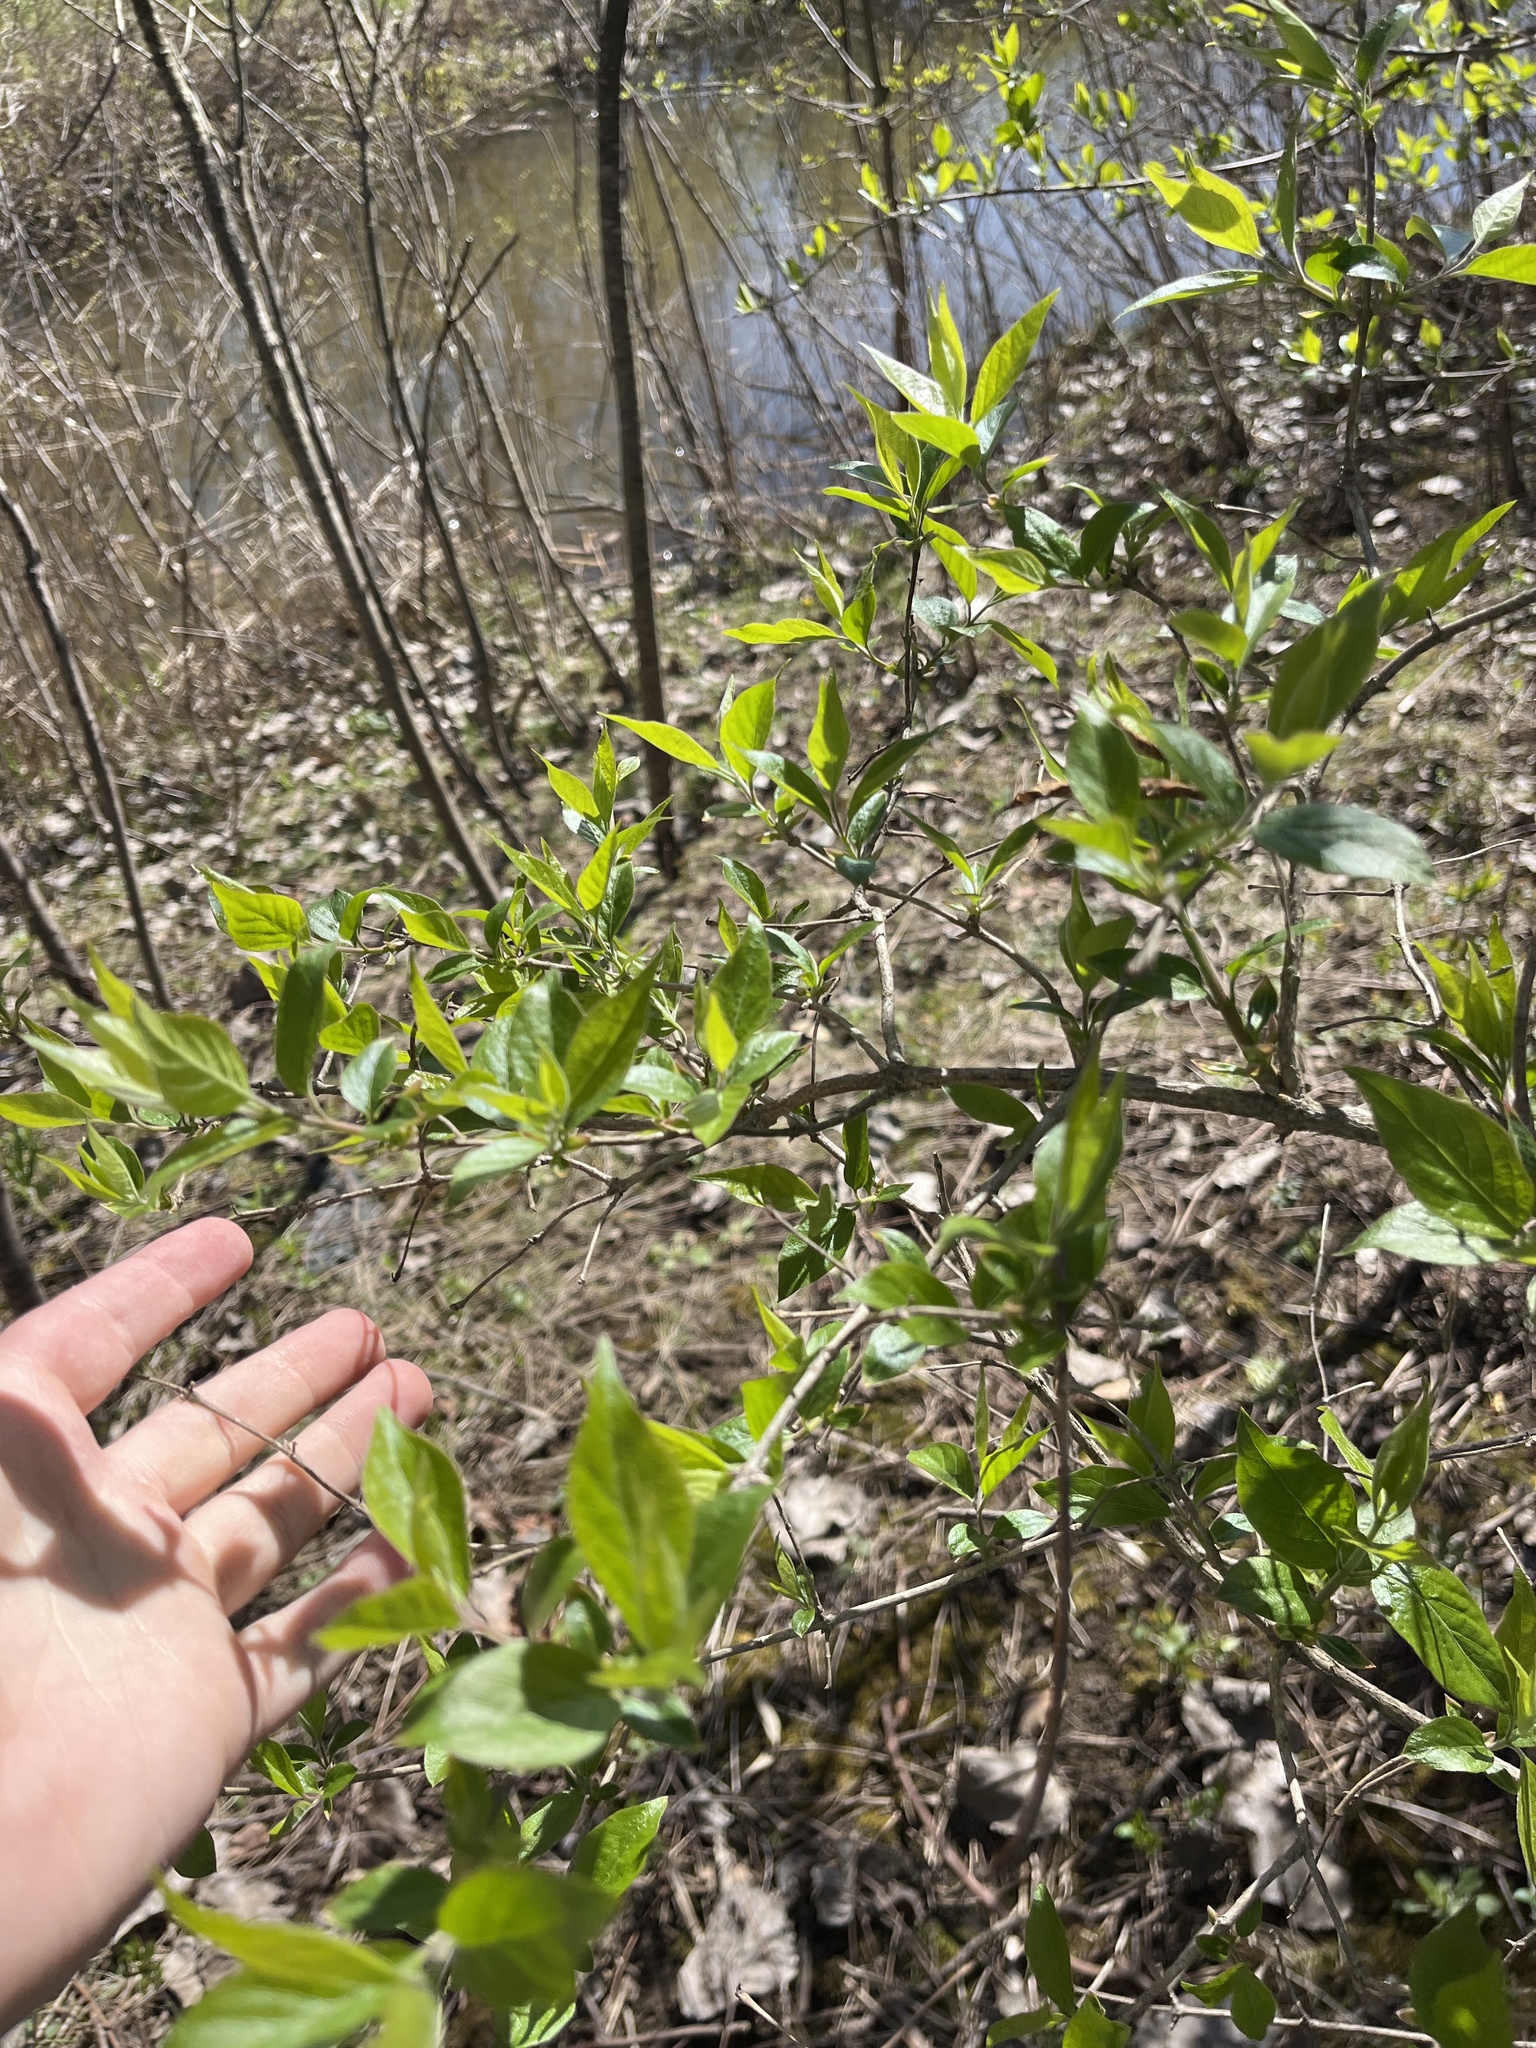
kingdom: Plantae
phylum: Tracheophyta
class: Magnoliopsida
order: Dipsacales
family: Caprifoliaceae
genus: Lonicera
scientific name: Lonicera maackii
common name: Amur honeysuckle
